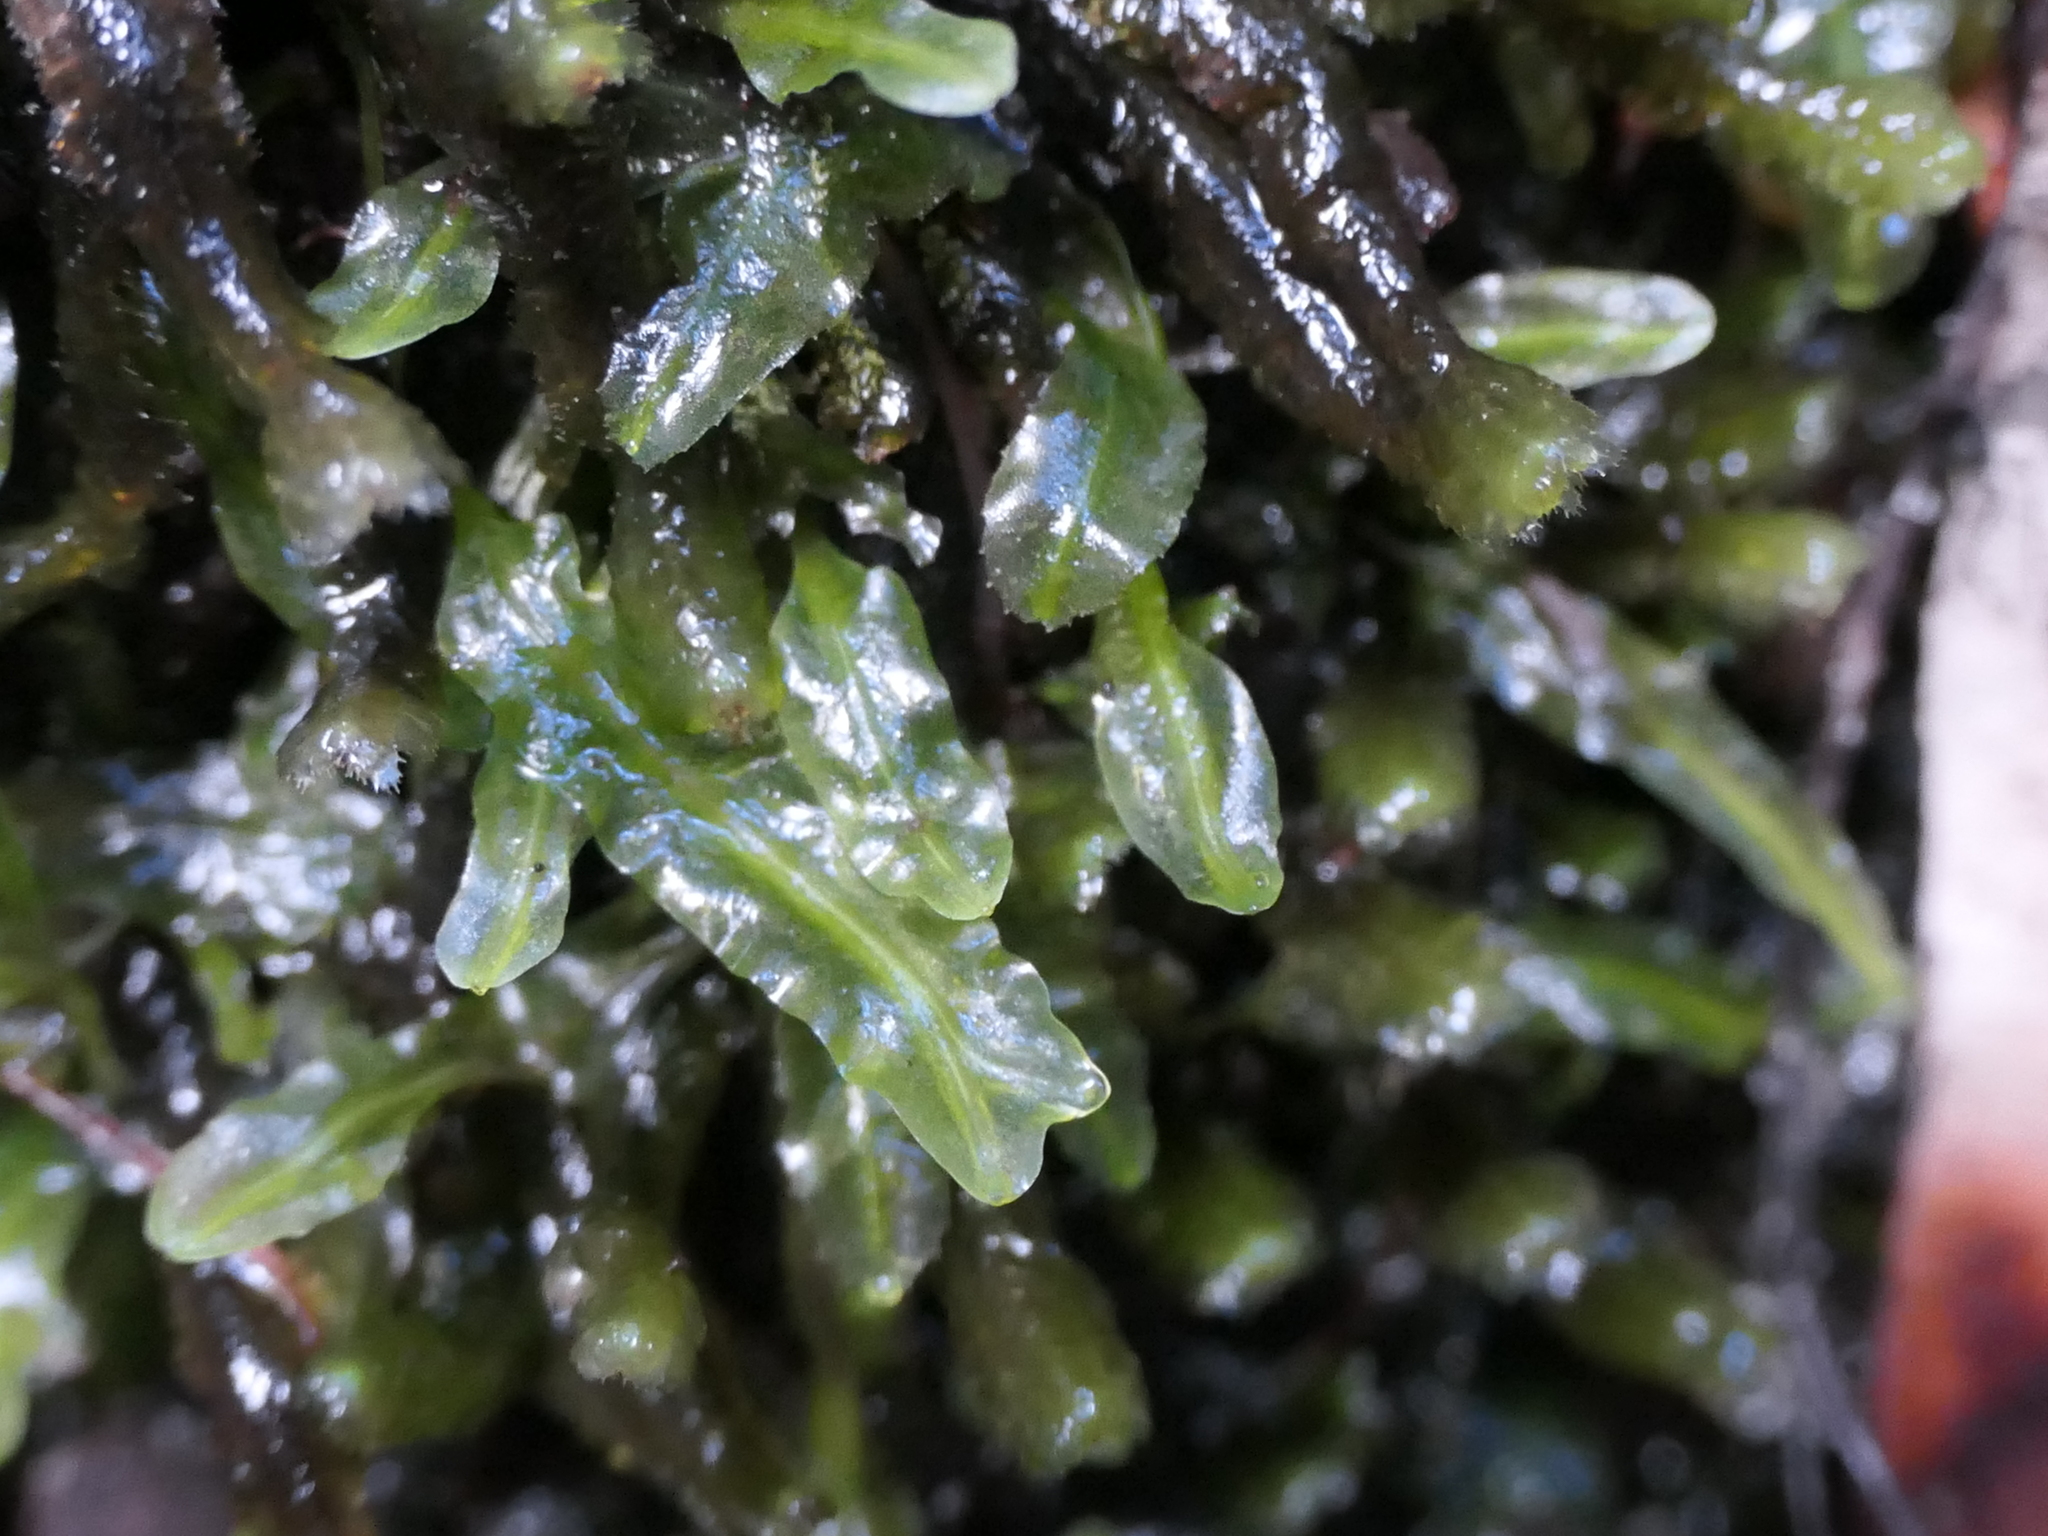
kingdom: Plantae
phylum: Marchantiophyta
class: Jungermanniopsida
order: Pallaviciniales
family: Pallaviciniaceae
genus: Symphyogyna
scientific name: Symphyogyna hymenophyllum
